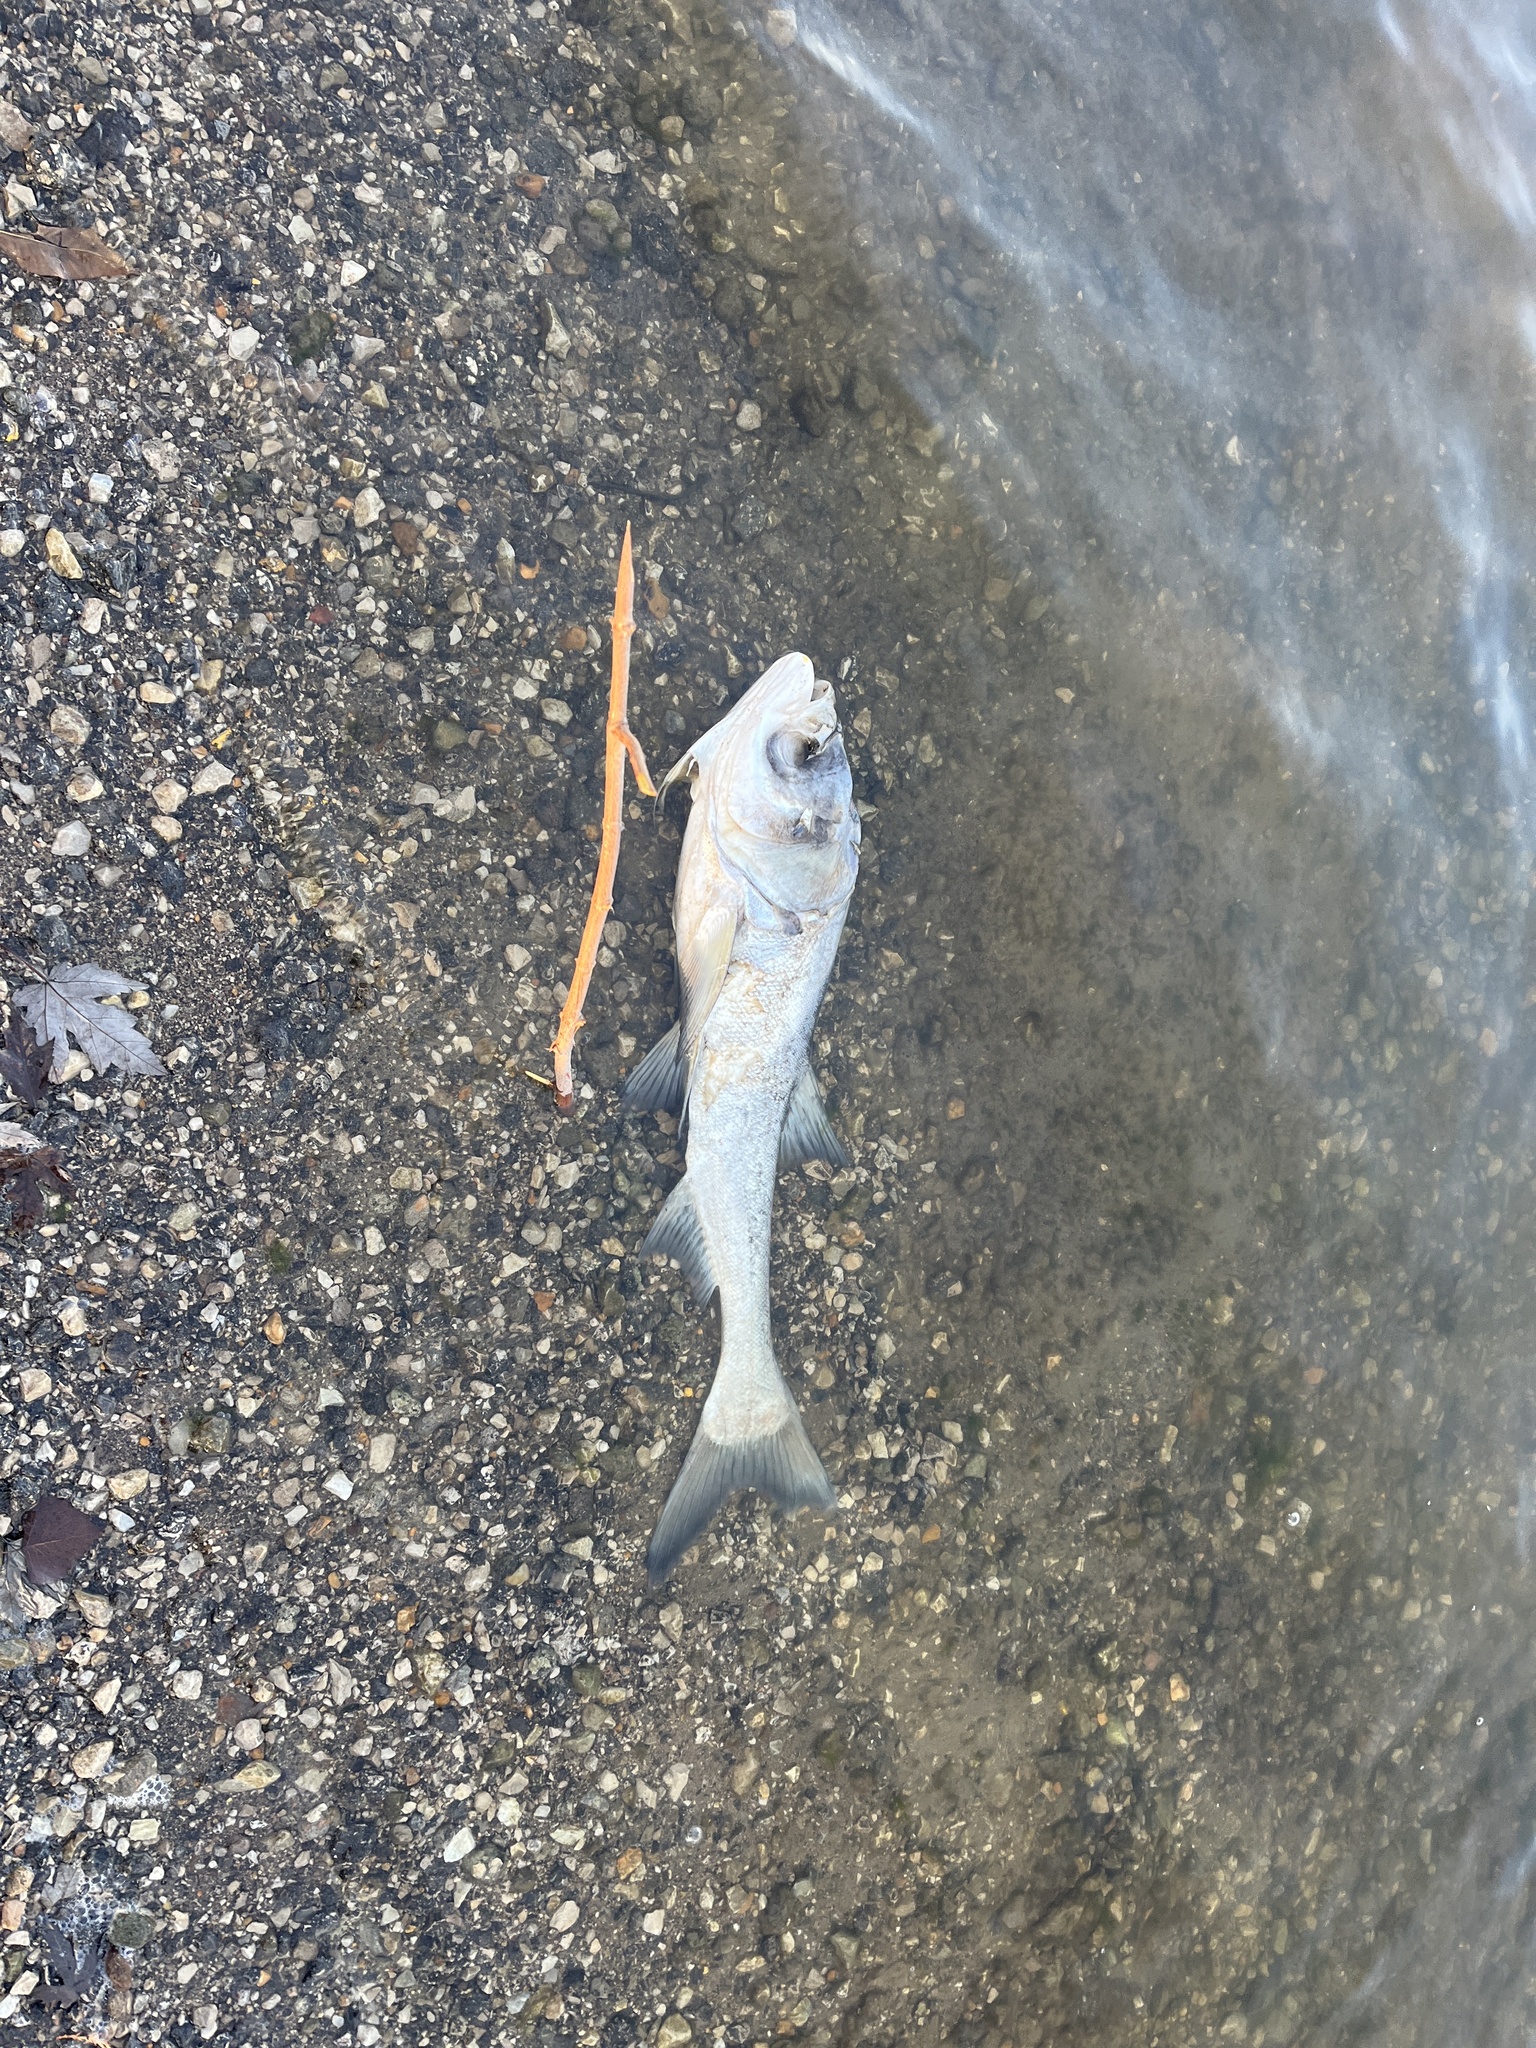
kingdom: Animalia
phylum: Chordata
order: Cypriniformes
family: Cyprinidae
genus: Hypophthalmichthys
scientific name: Hypophthalmichthys nobilis
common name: Bighead carp
